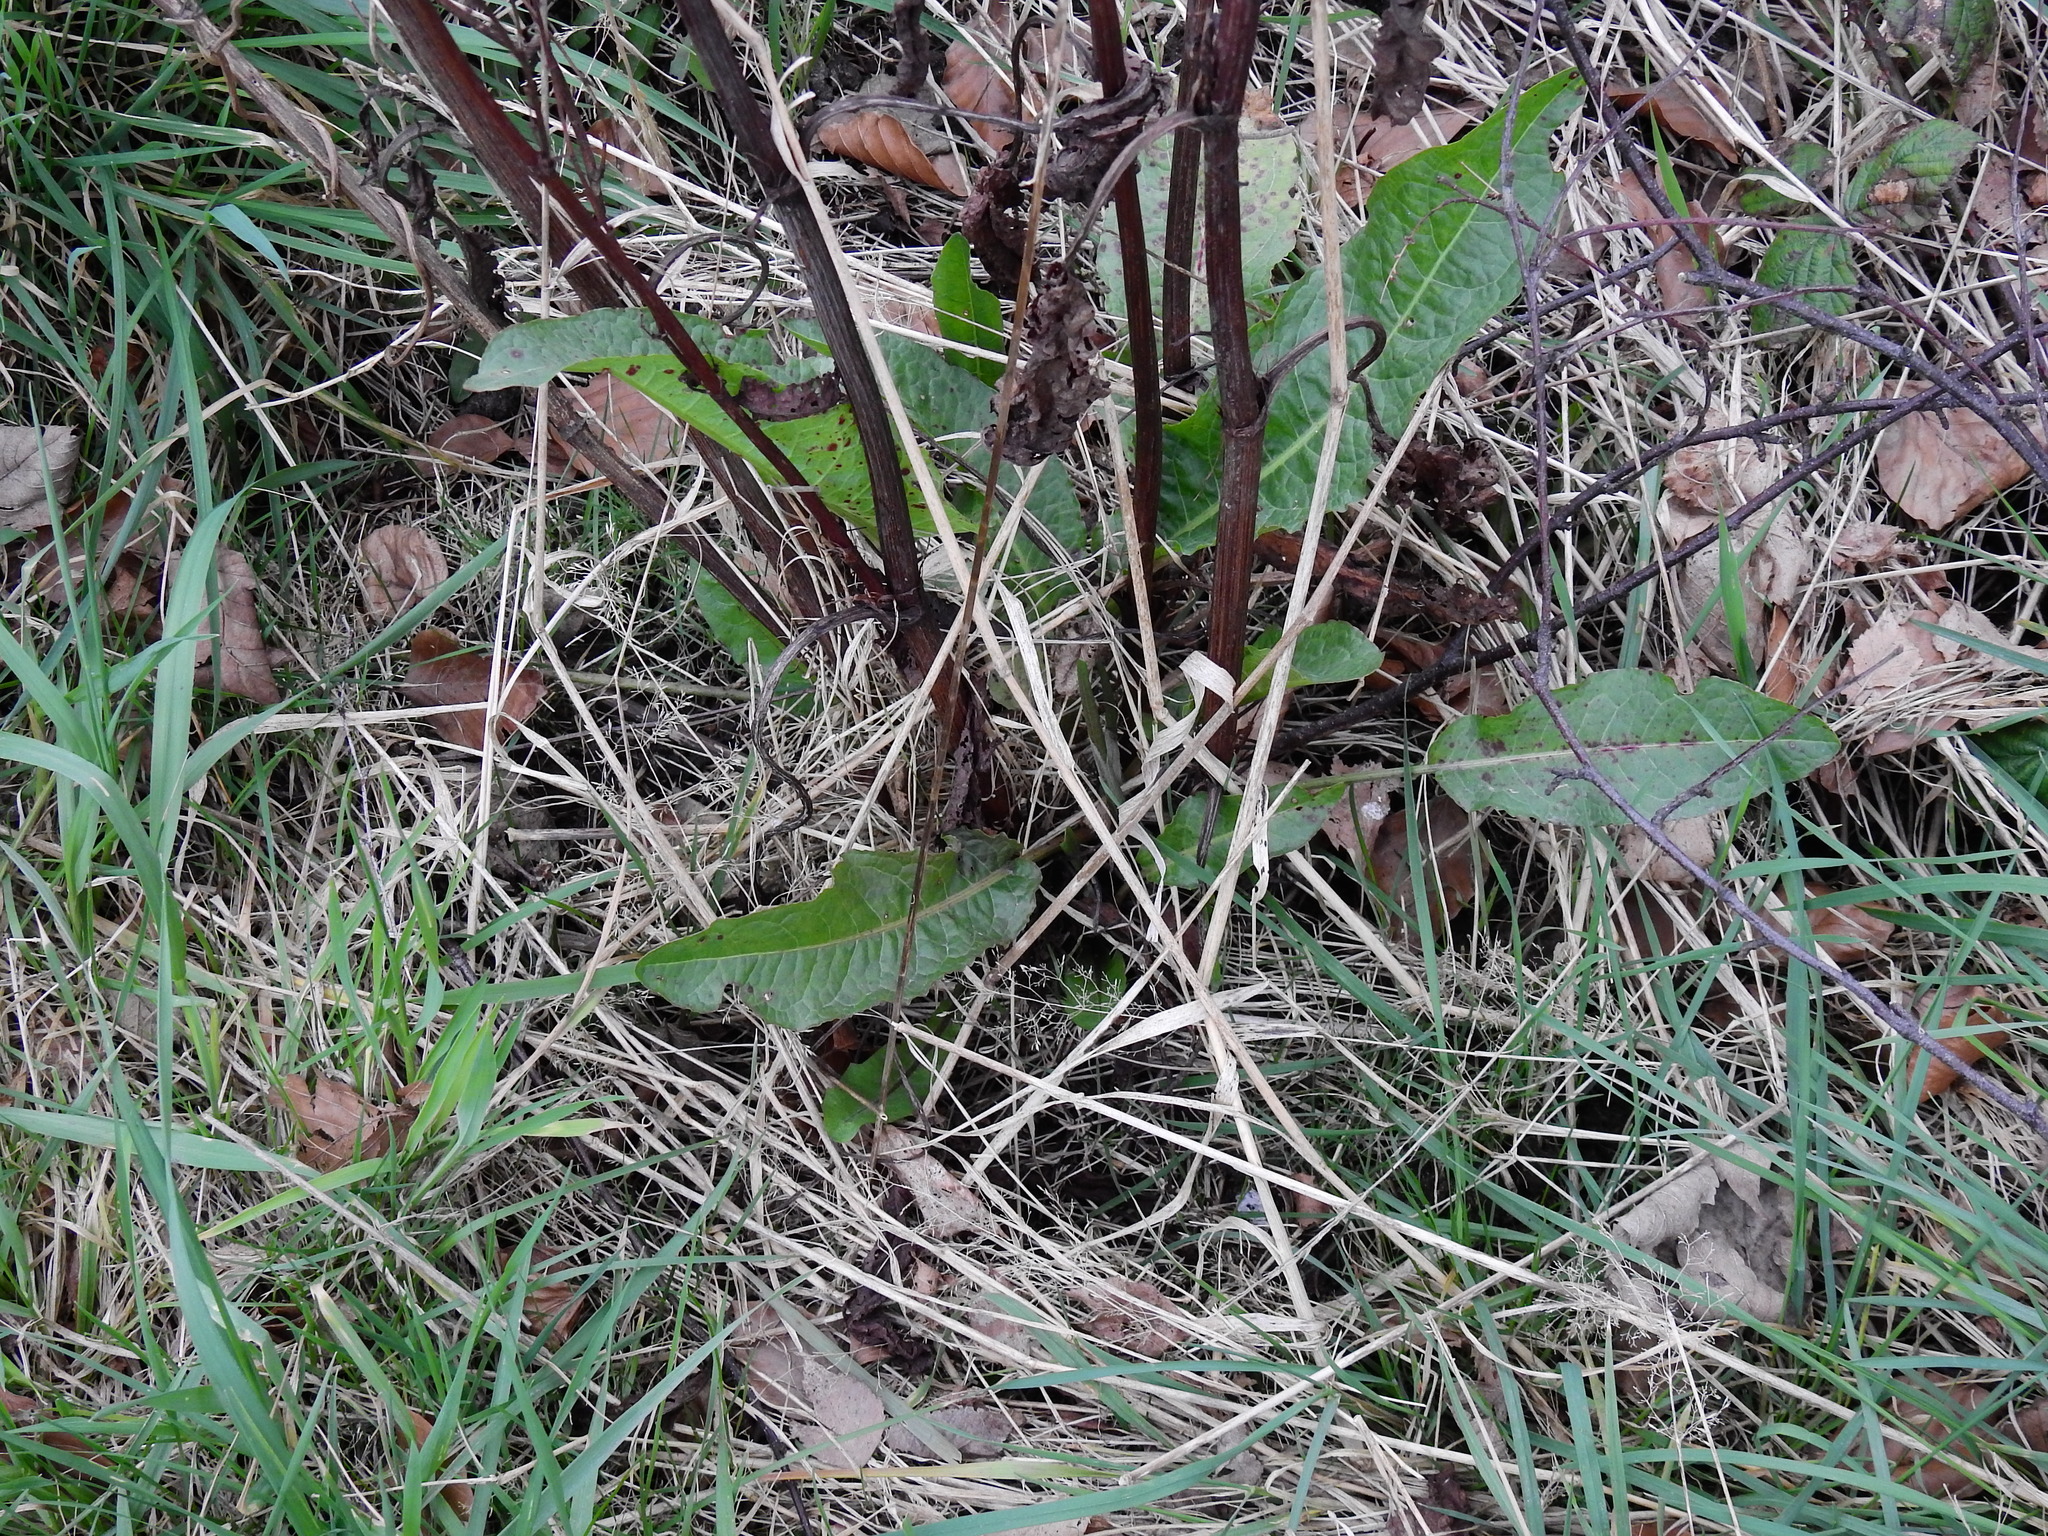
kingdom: Plantae
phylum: Tracheophyta
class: Magnoliopsida
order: Caryophyllales
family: Polygonaceae
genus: Rumex
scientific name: Rumex obtusifolius
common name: Bitter dock
